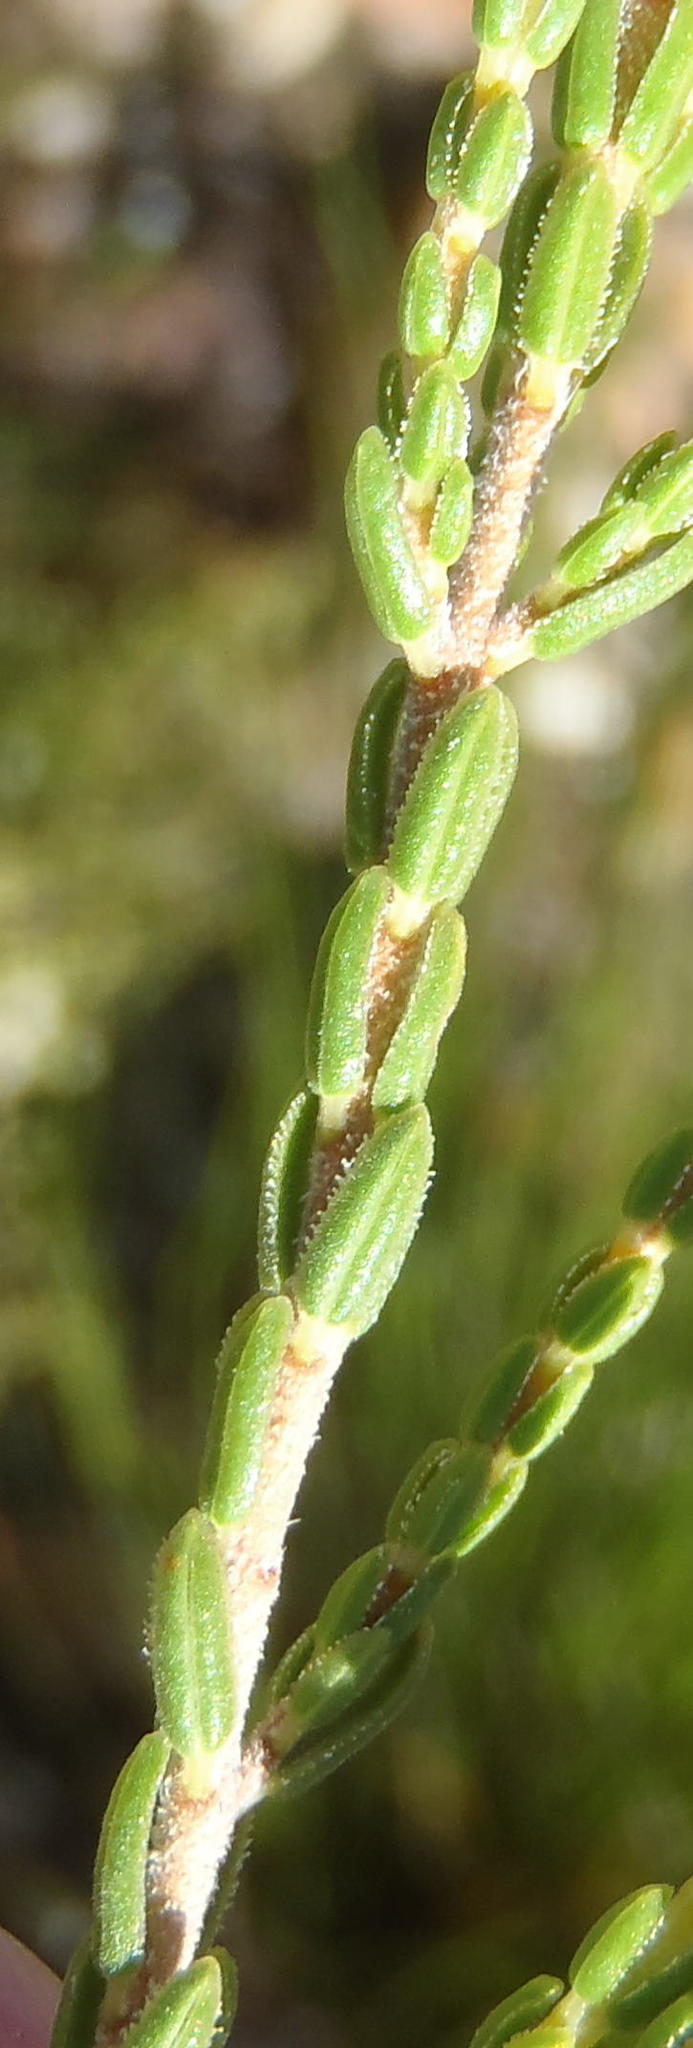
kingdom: Plantae
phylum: Tracheophyta
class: Magnoliopsida
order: Ericales
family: Ericaceae
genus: Erica
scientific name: Erica fimbriata
